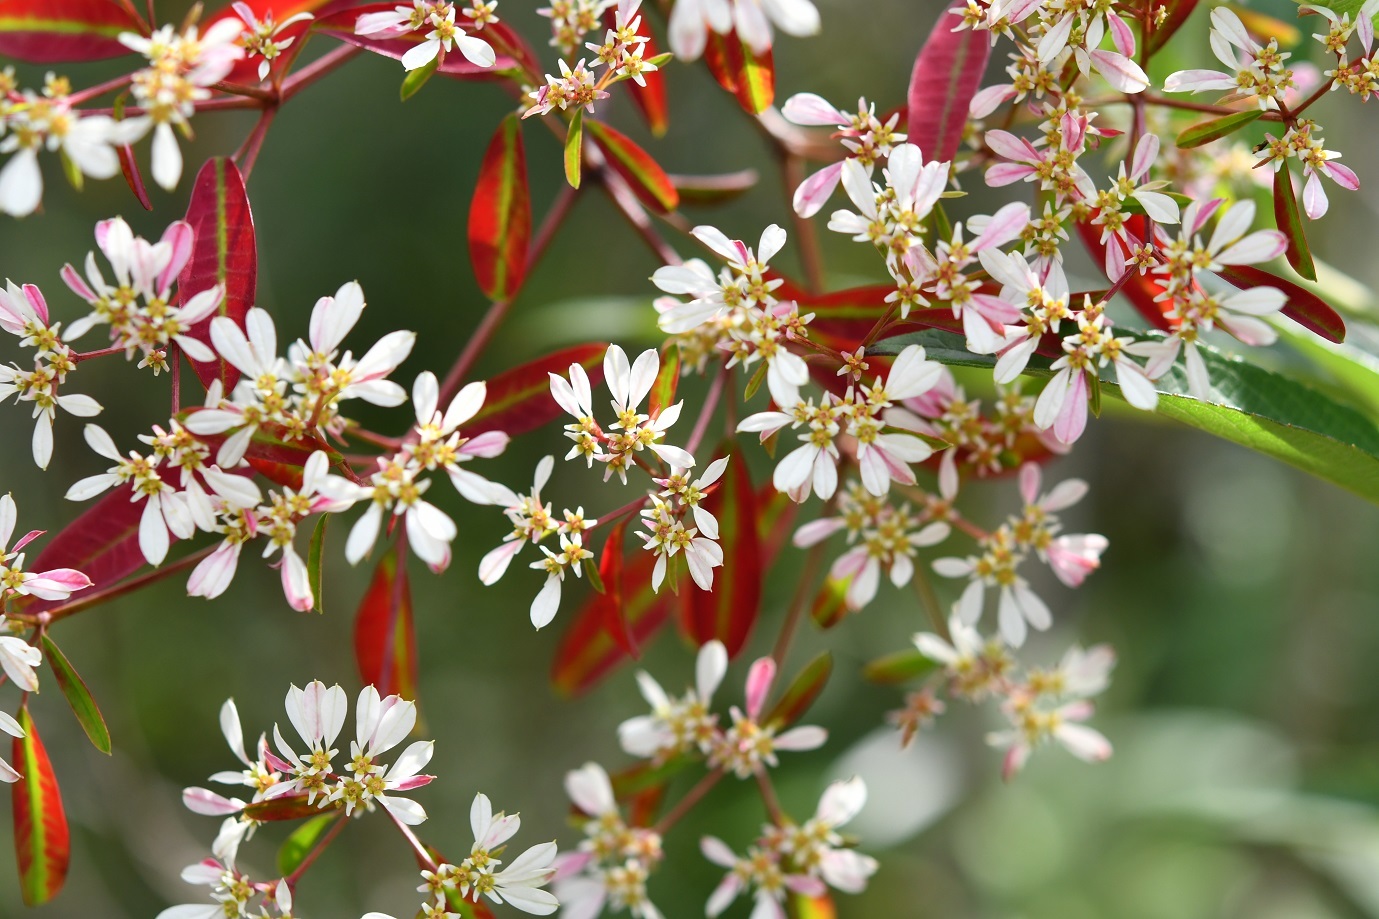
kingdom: Plantae
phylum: Tracheophyta
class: Magnoliopsida
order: Malpighiales
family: Euphorbiaceae
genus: Euphorbia
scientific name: Euphorbia leucocephala
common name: Pascuita
